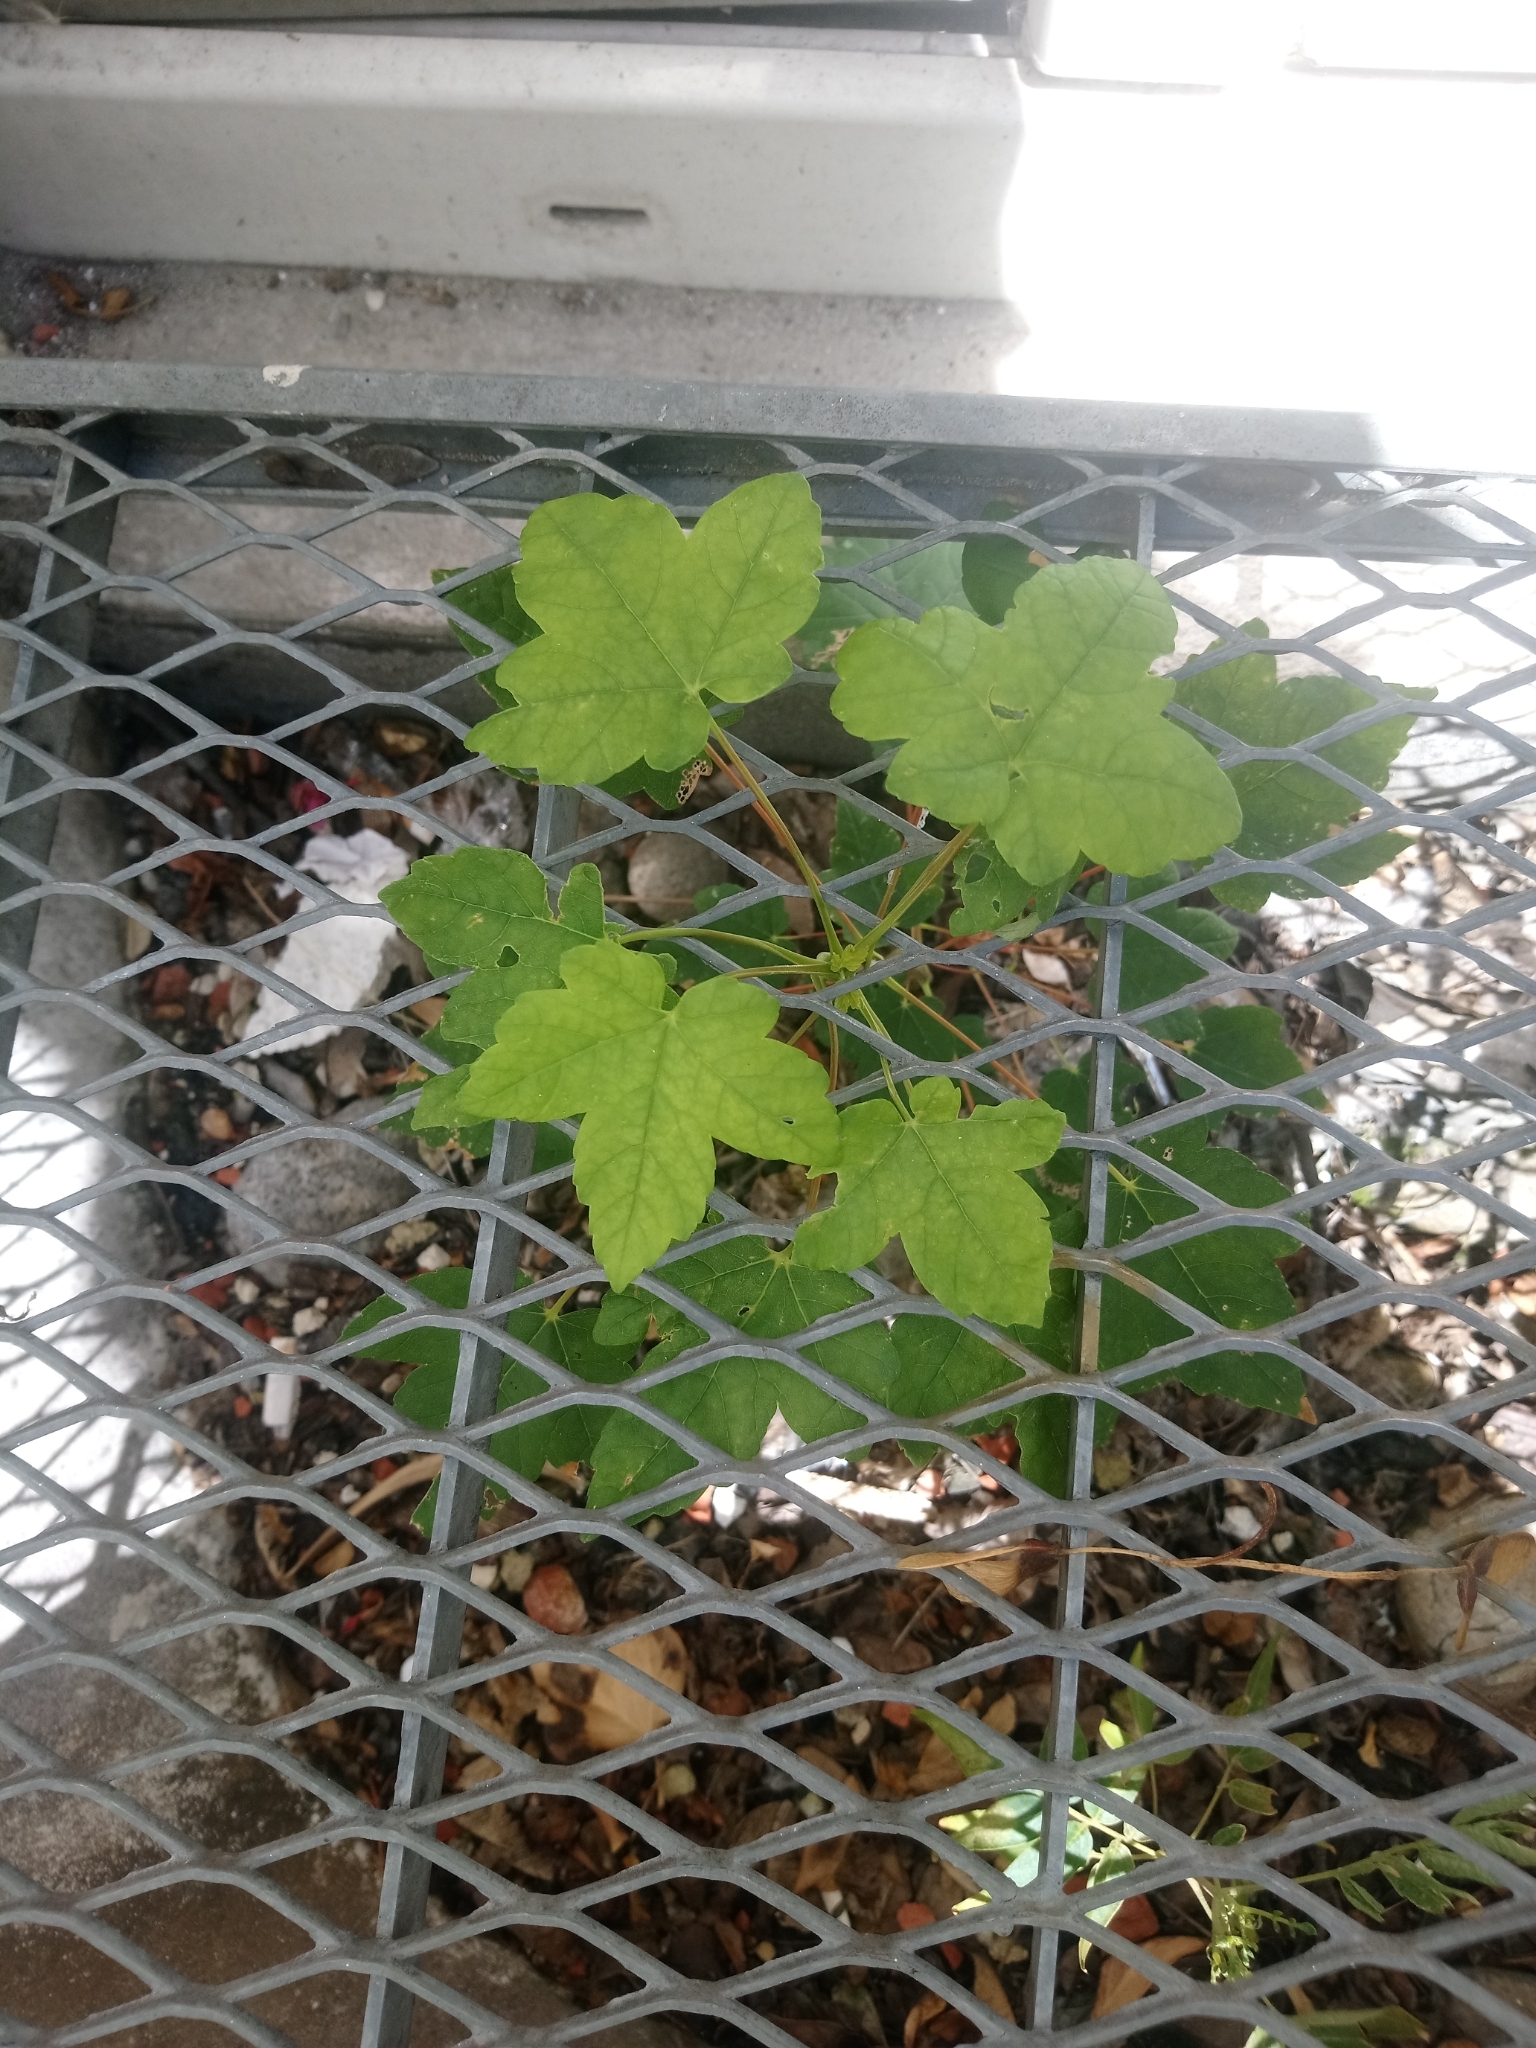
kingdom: Plantae
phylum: Tracheophyta
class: Magnoliopsida
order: Sapindales
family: Sapindaceae
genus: Acer
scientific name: Acer pseudoplatanus
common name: Sycamore
